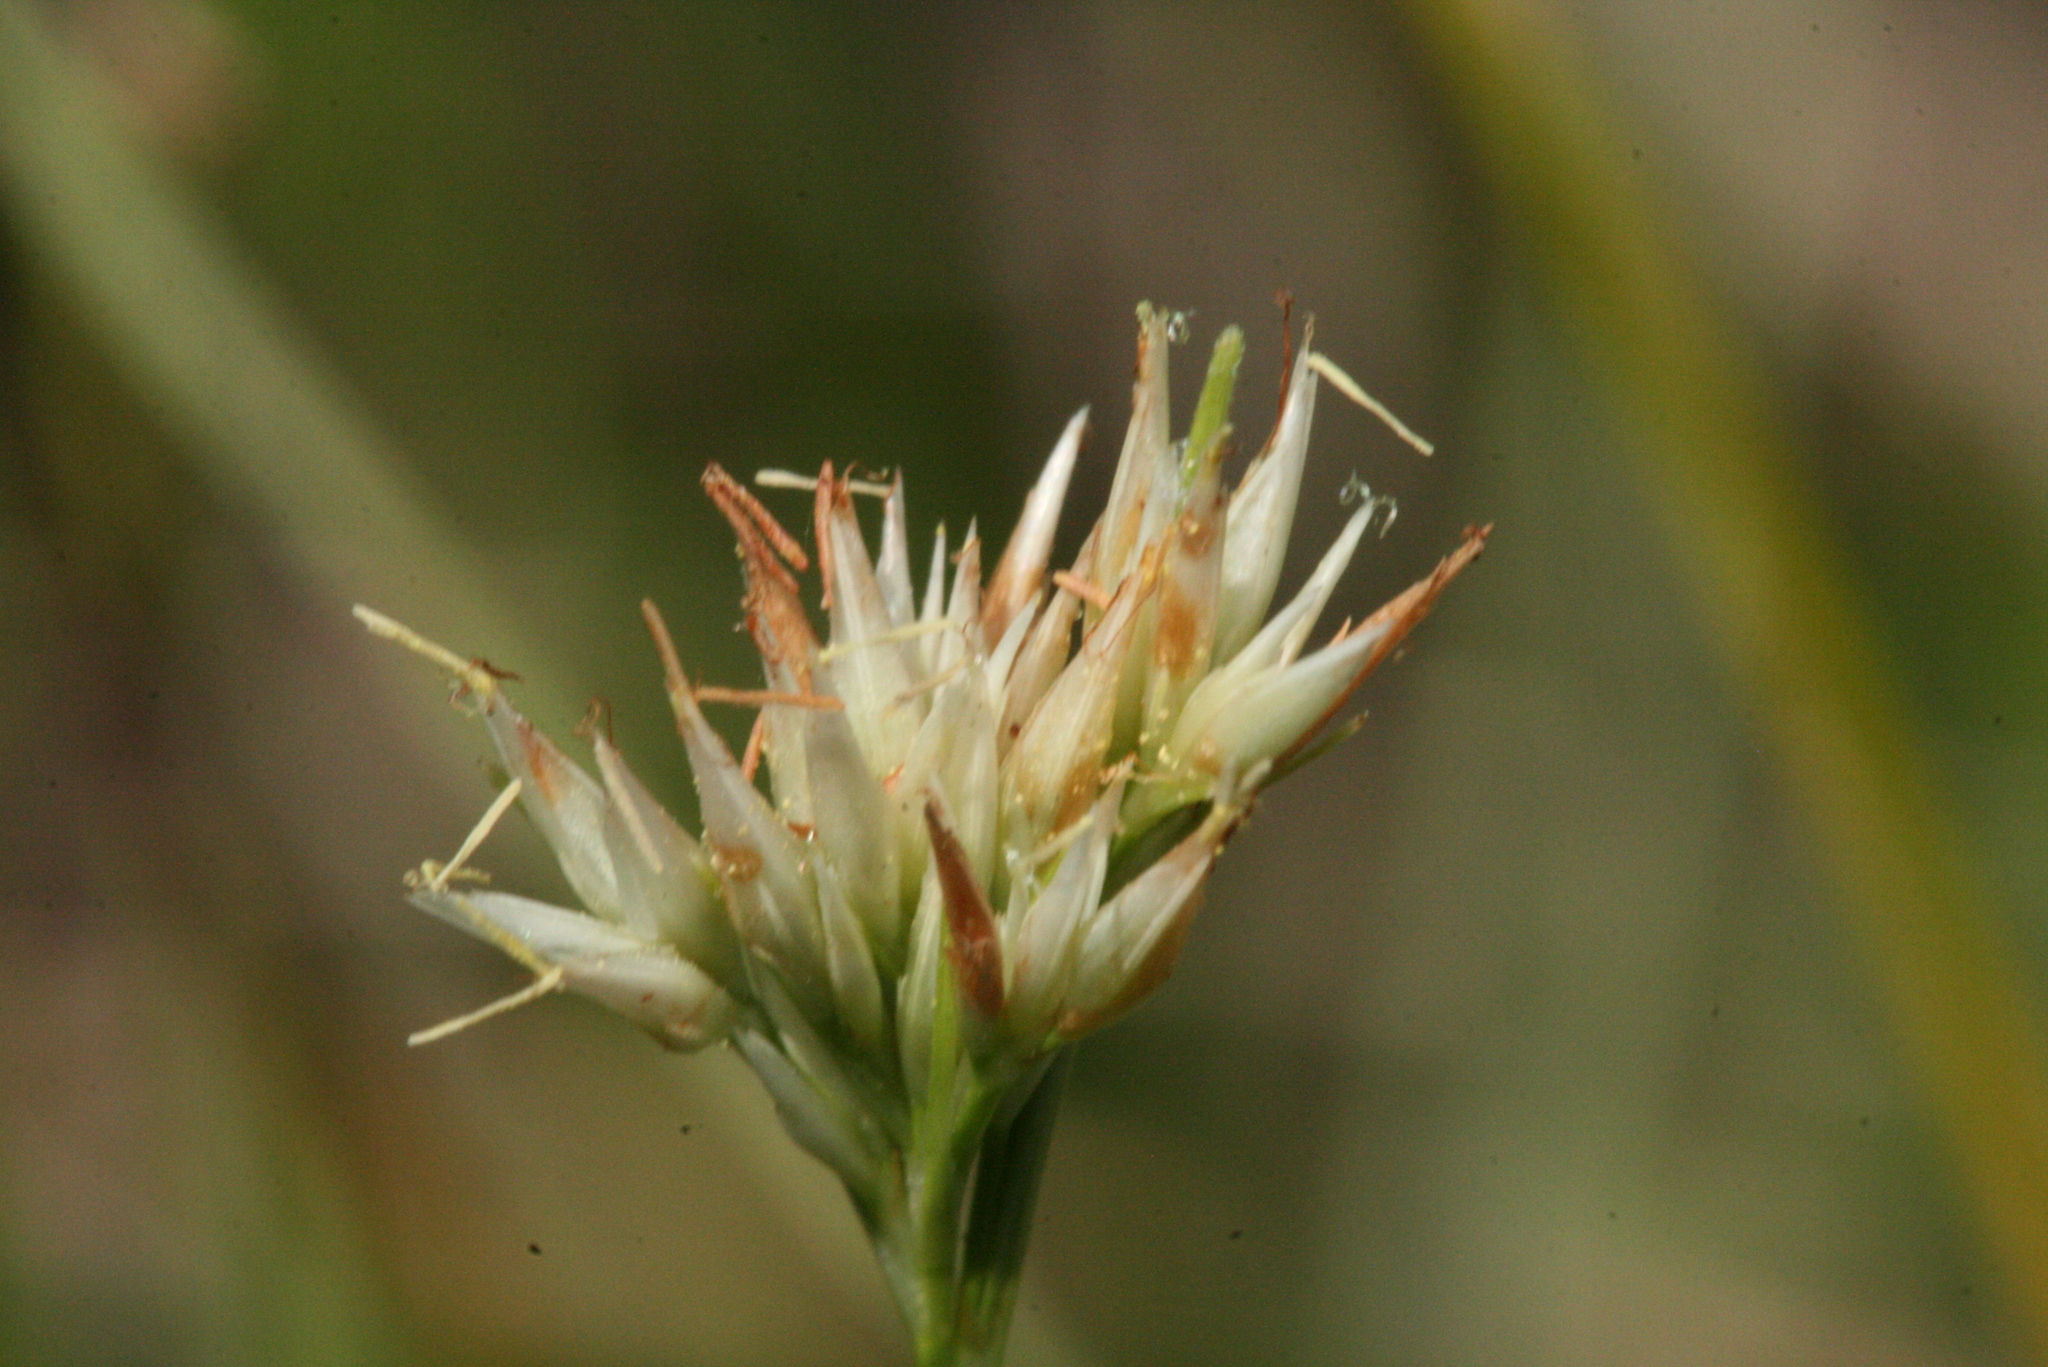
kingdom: Plantae
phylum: Tracheophyta
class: Liliopsida
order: Poales
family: Cyperaceae
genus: Rhynchospora
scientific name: Rhynchospora alba
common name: White beak-sedge
